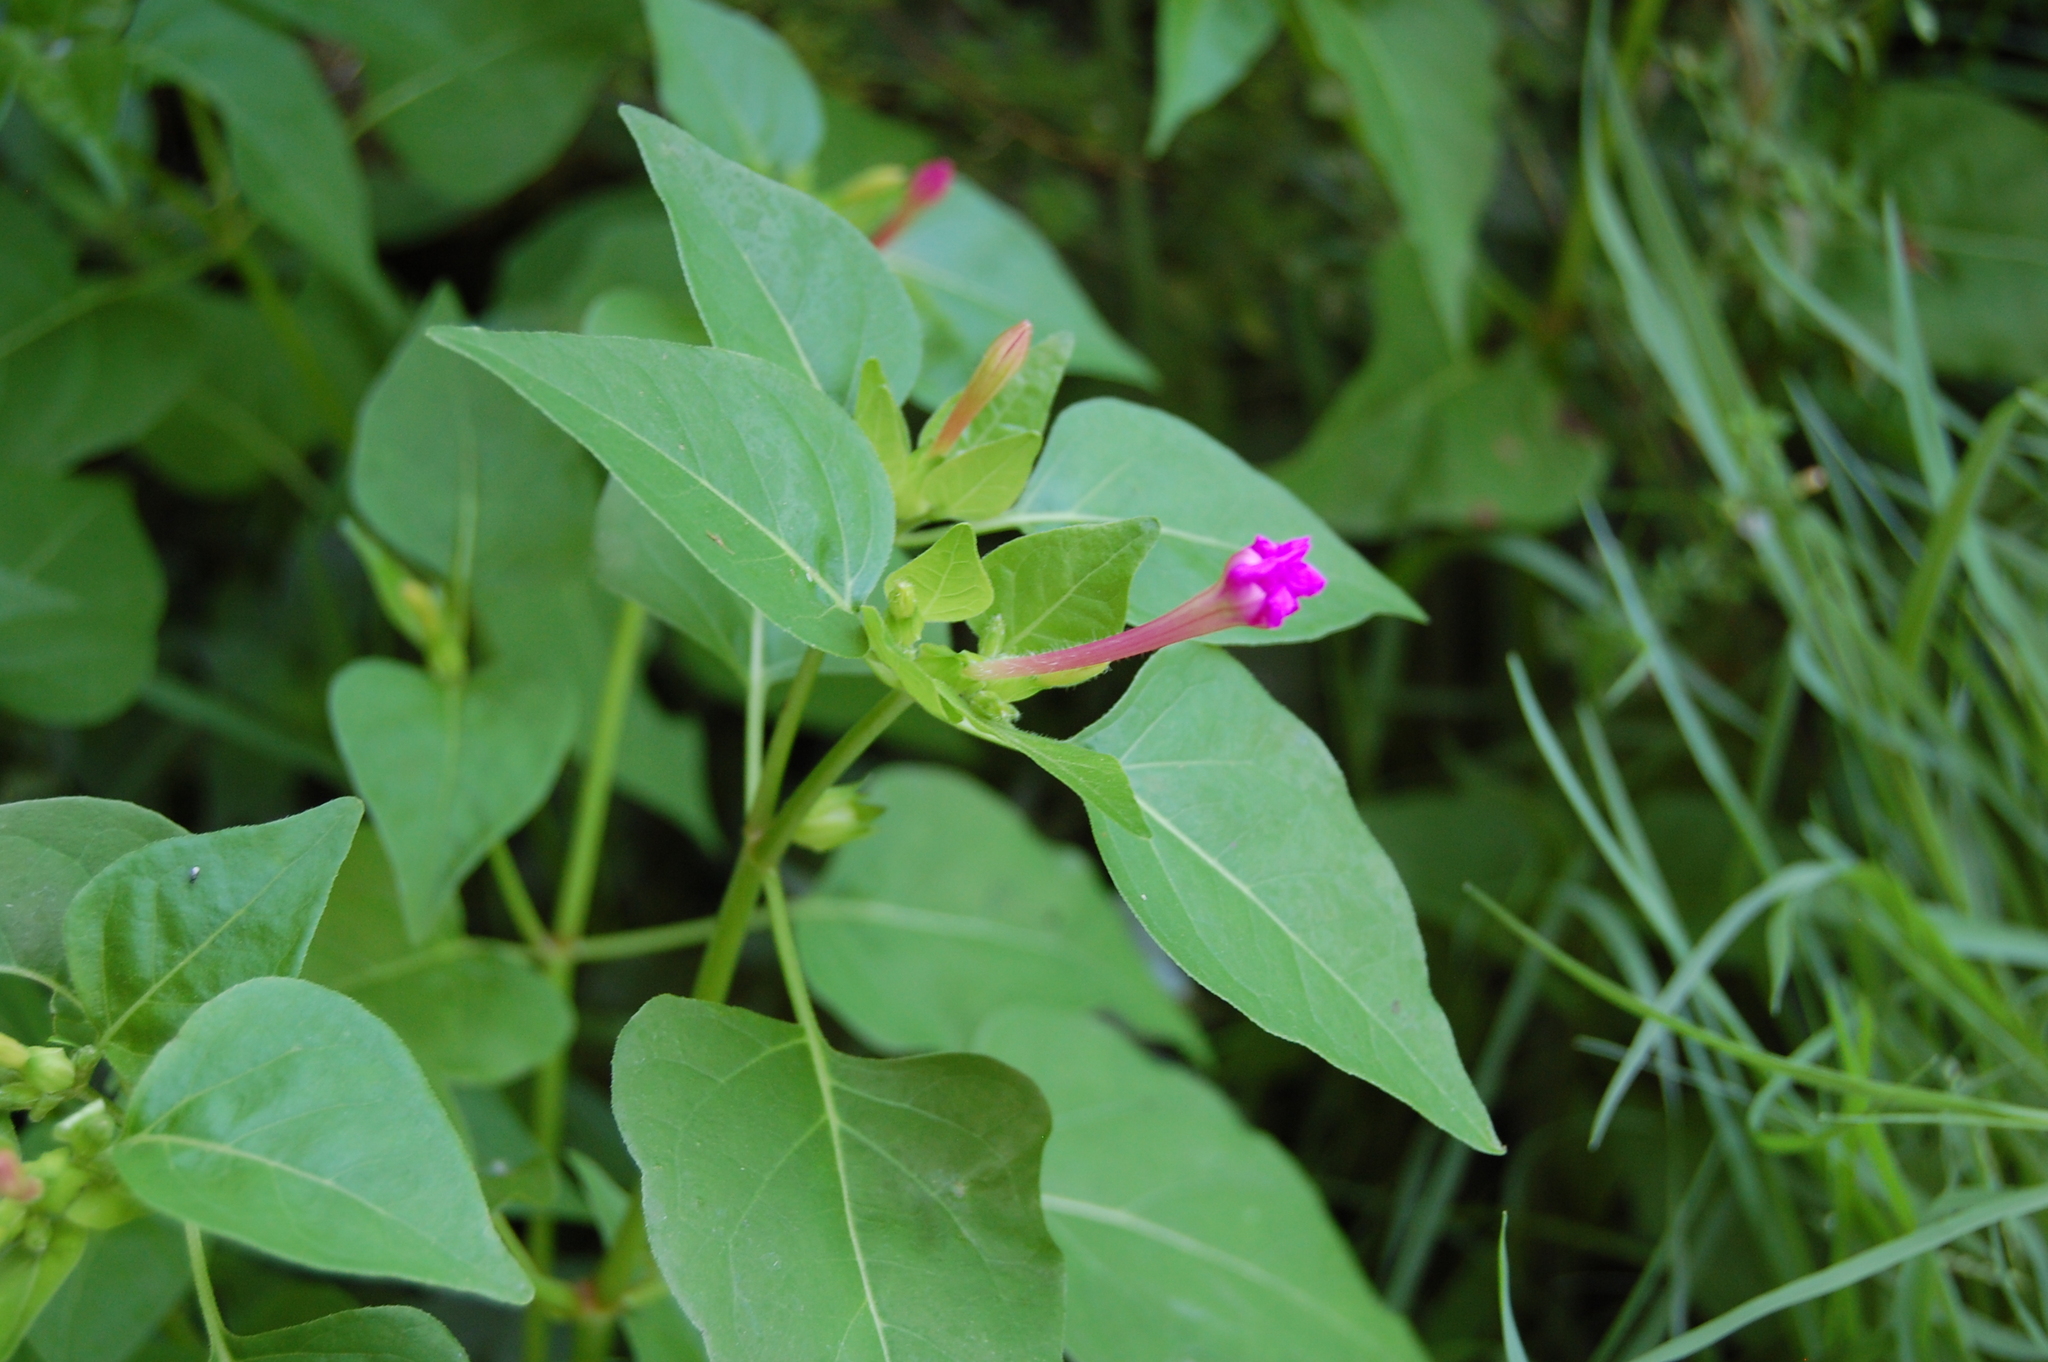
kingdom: Plantae
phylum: Tracheophyta
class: Magnoliopsida
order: Caryophyllales
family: Nyctaginaceae
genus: Mirabilis
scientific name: Mirabilis jalapa
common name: Marvel-of-peru
